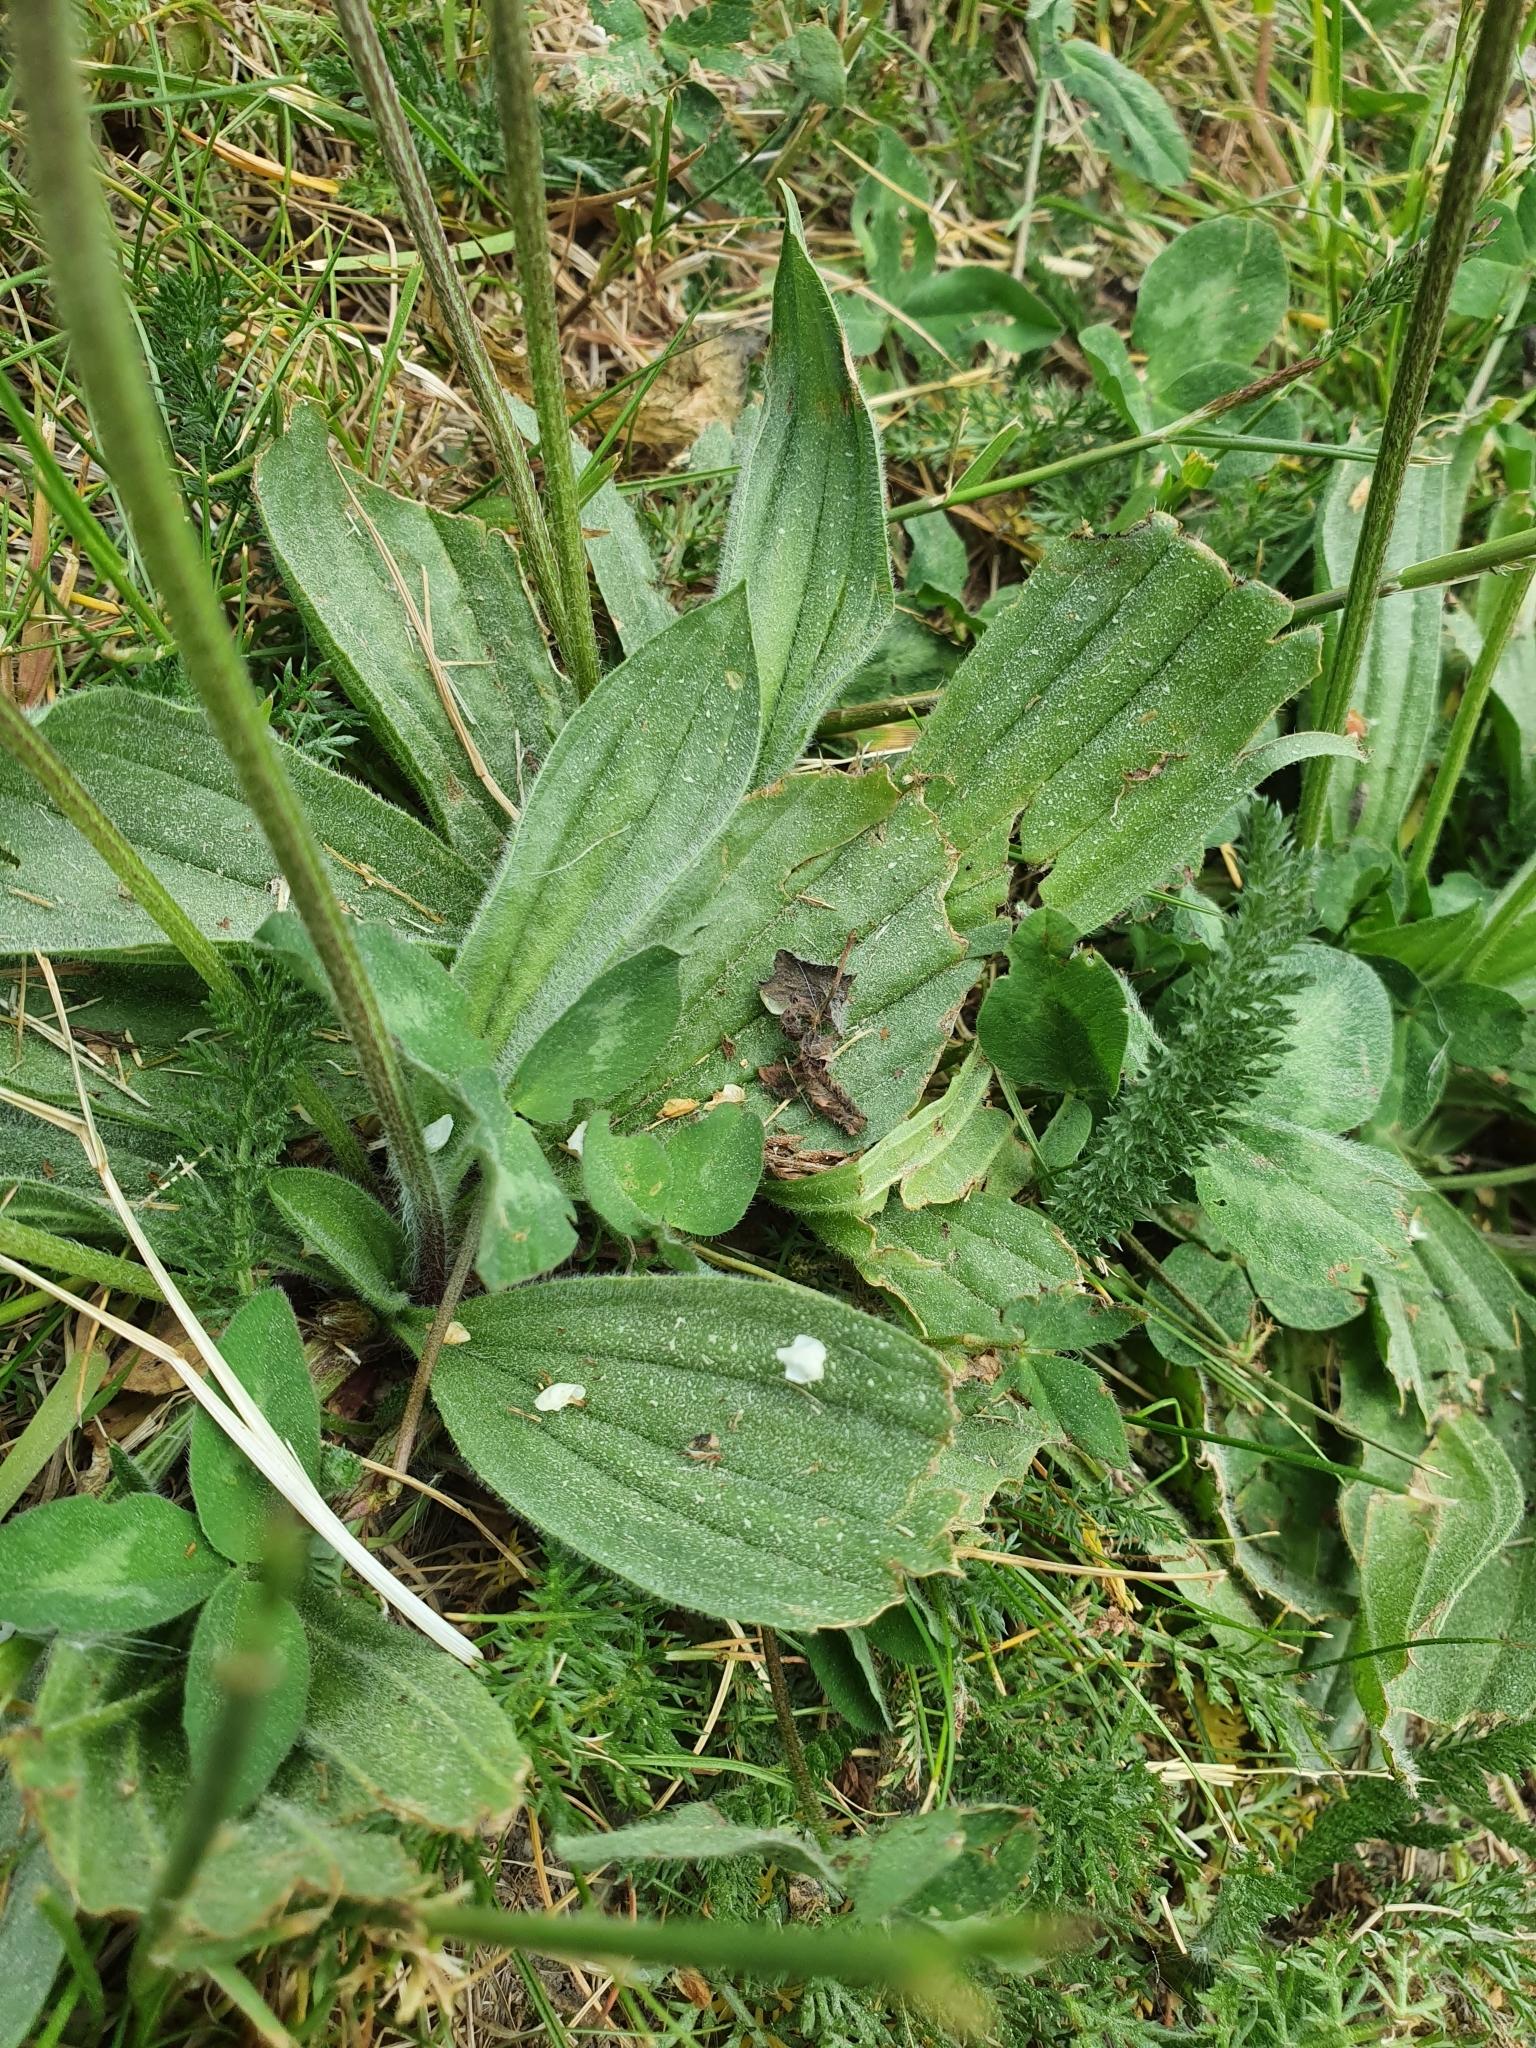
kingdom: Plantae
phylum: Tracheophyta
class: Magnoliopsida
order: Lamiales
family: Plantaginaceae
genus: Plantago
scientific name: Plantago lanceolata
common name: Ribwort plantain
